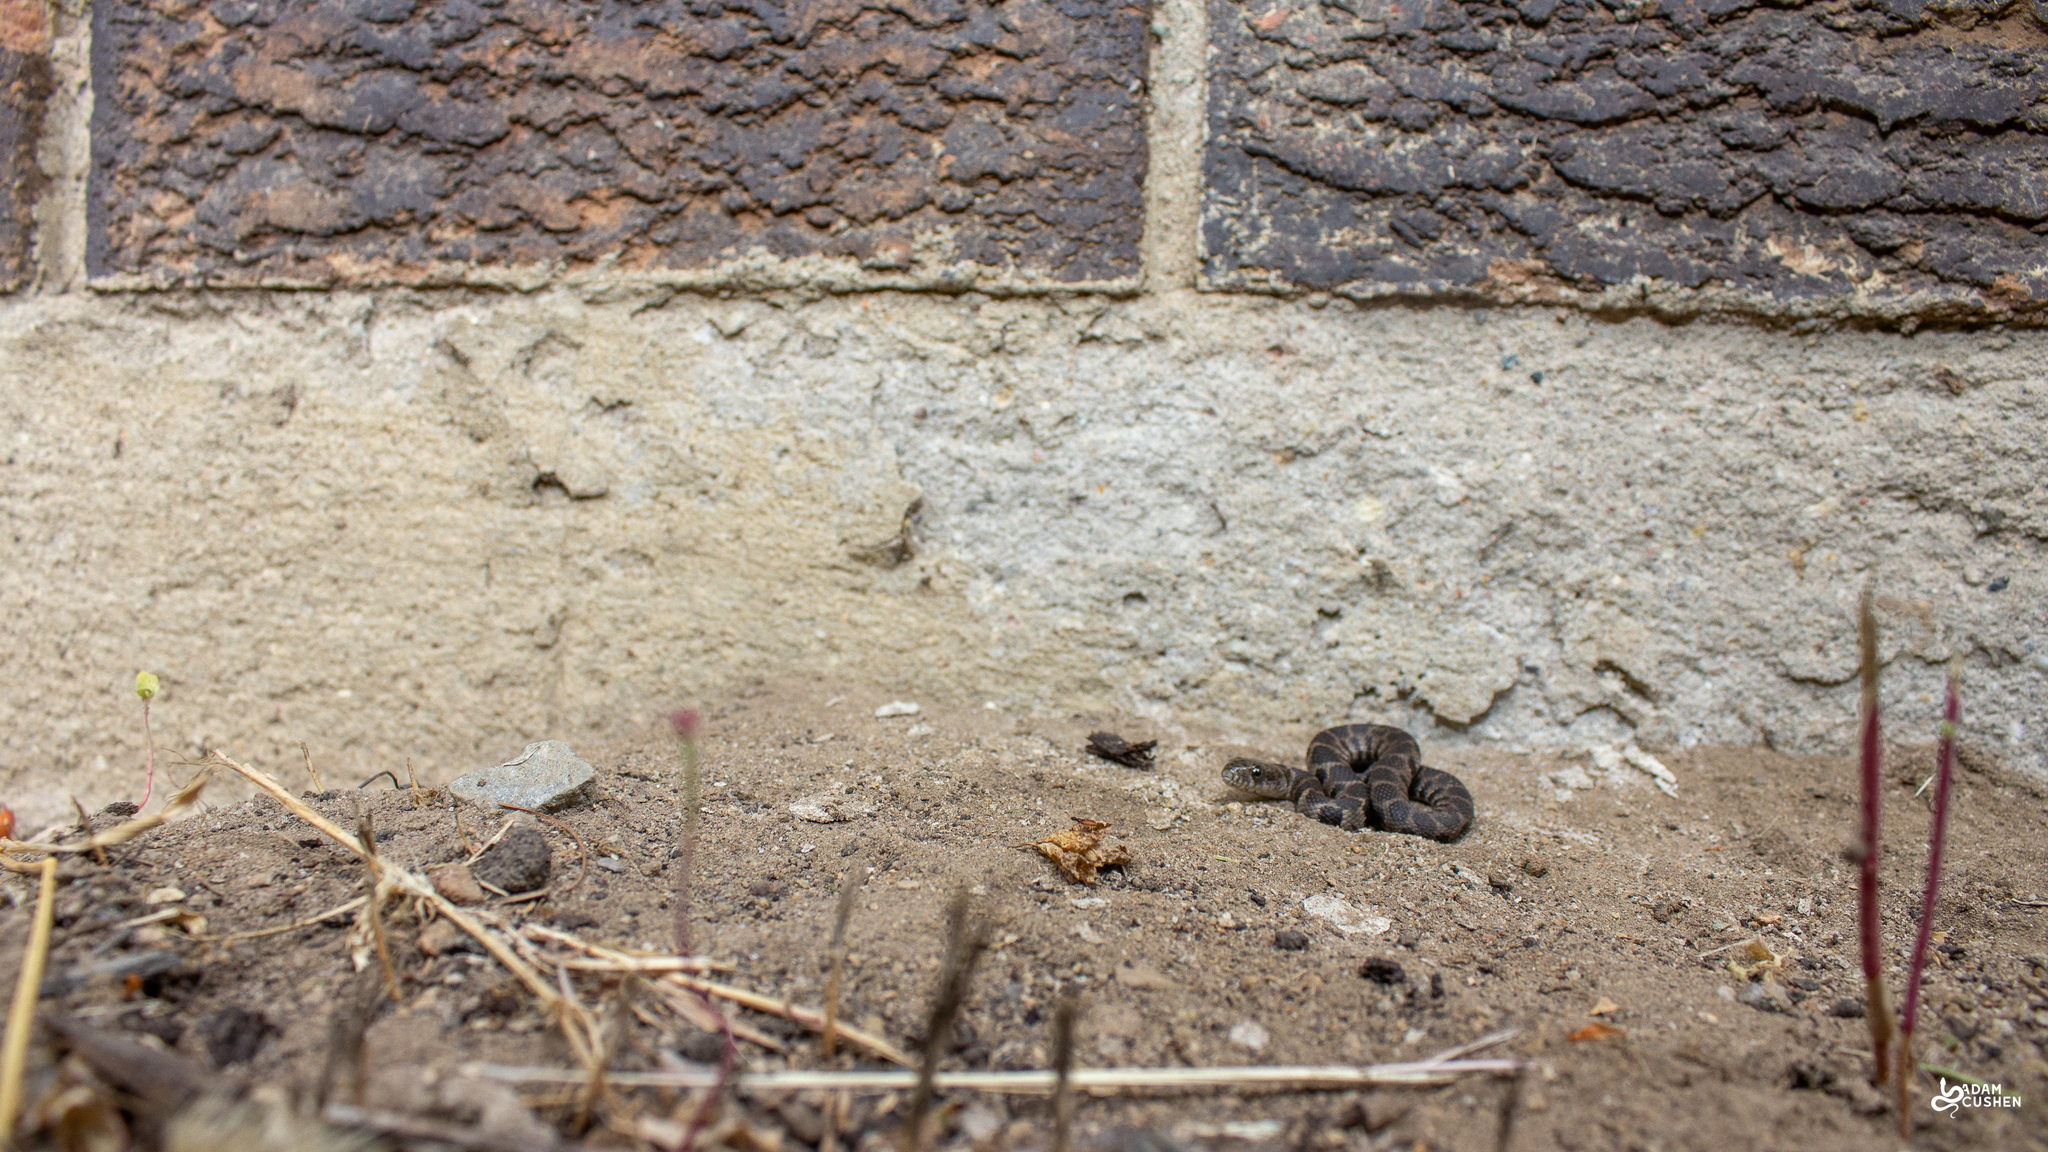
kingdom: Animalia
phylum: Chordata
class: Squamata
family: Colubridae
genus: Nerodia
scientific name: Nerodia sipedon
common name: Northern water snake
